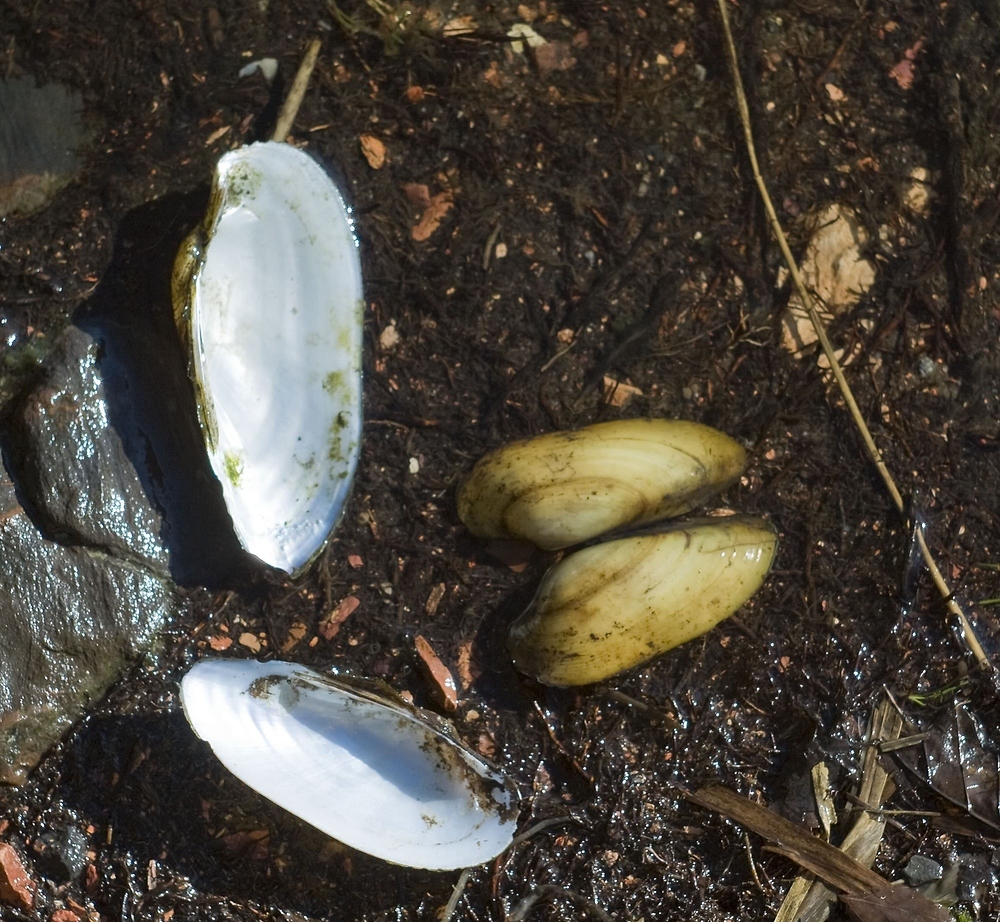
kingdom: Animalia
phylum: Mollusca
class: Bivalvia
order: Unionida
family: Unionidae
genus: Unio
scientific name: Unio pictorum
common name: Painter's mussel
